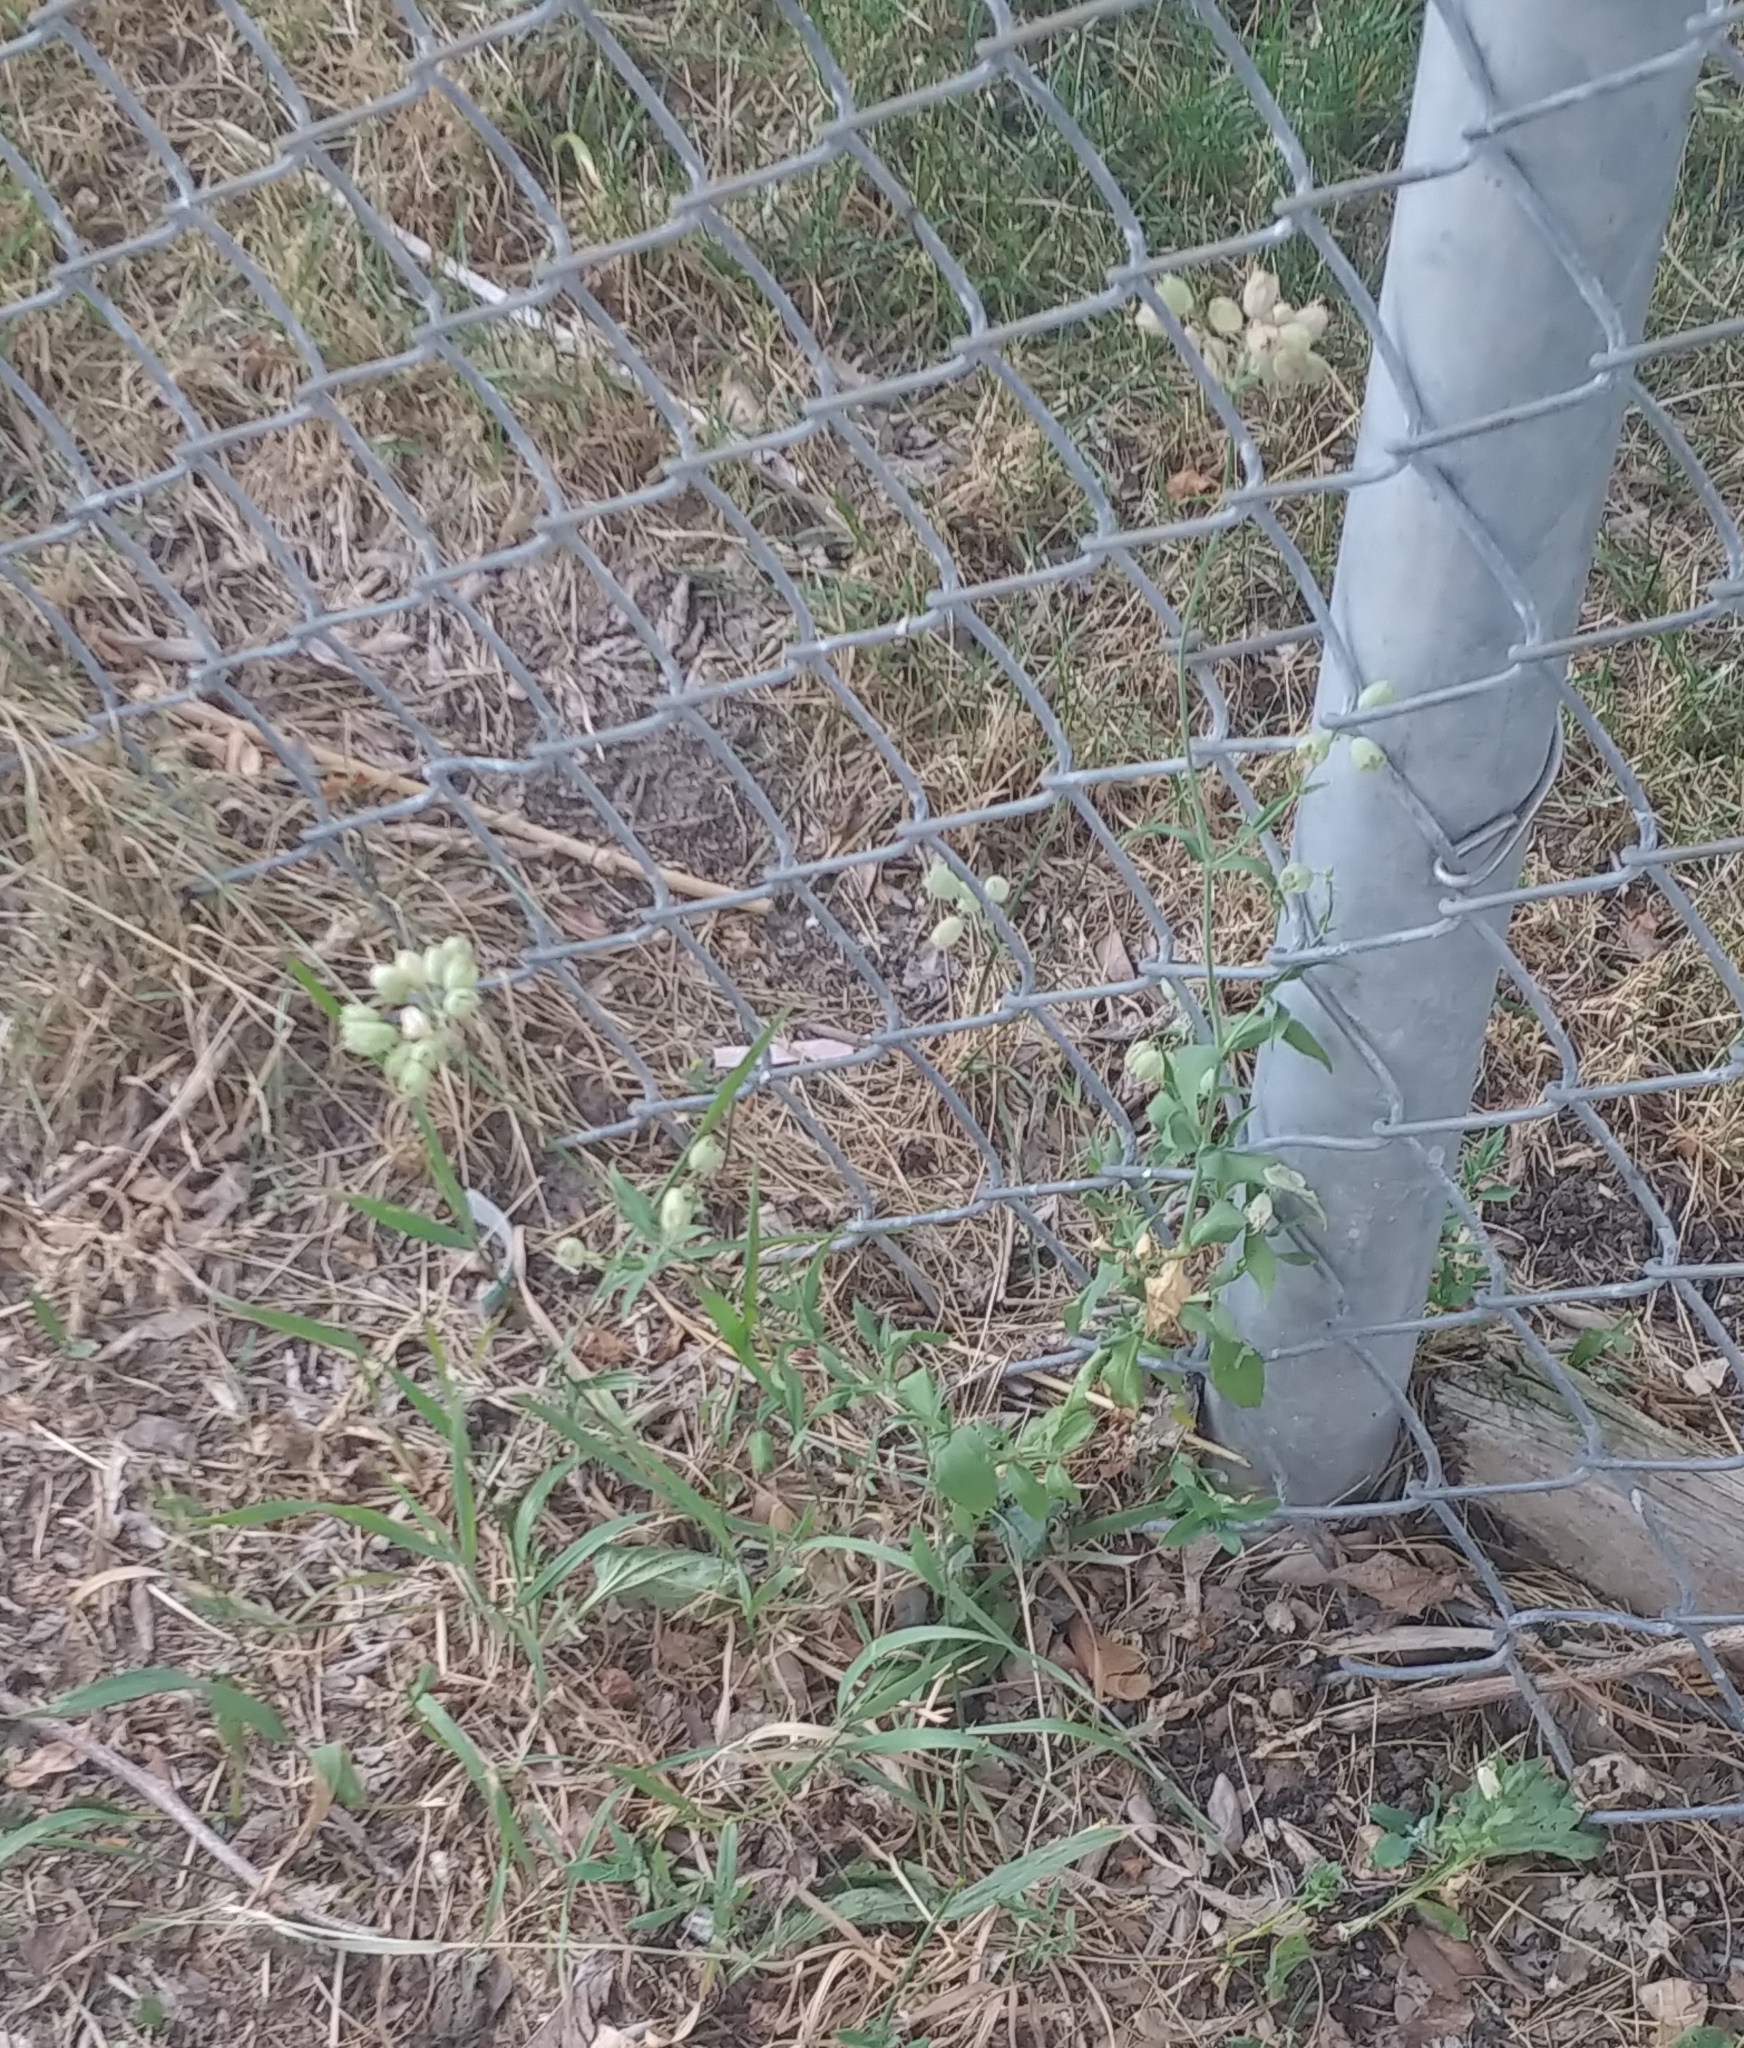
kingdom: Plantae
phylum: Tracheophyta
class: Magnoliopsida
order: Caryophyllales
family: Caryophyllaceae
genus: Silene
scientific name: Silene vulgaris
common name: Bladder campion
